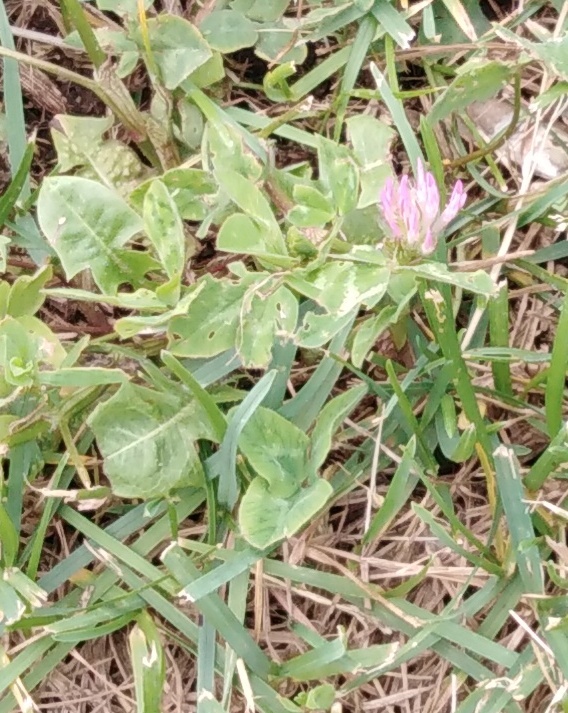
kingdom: Plantae
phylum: Tracheophyta
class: Magnoliopsida
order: Fabales
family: Fabaceae
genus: Trifolium
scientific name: Trifolium pratense
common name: Red clover
